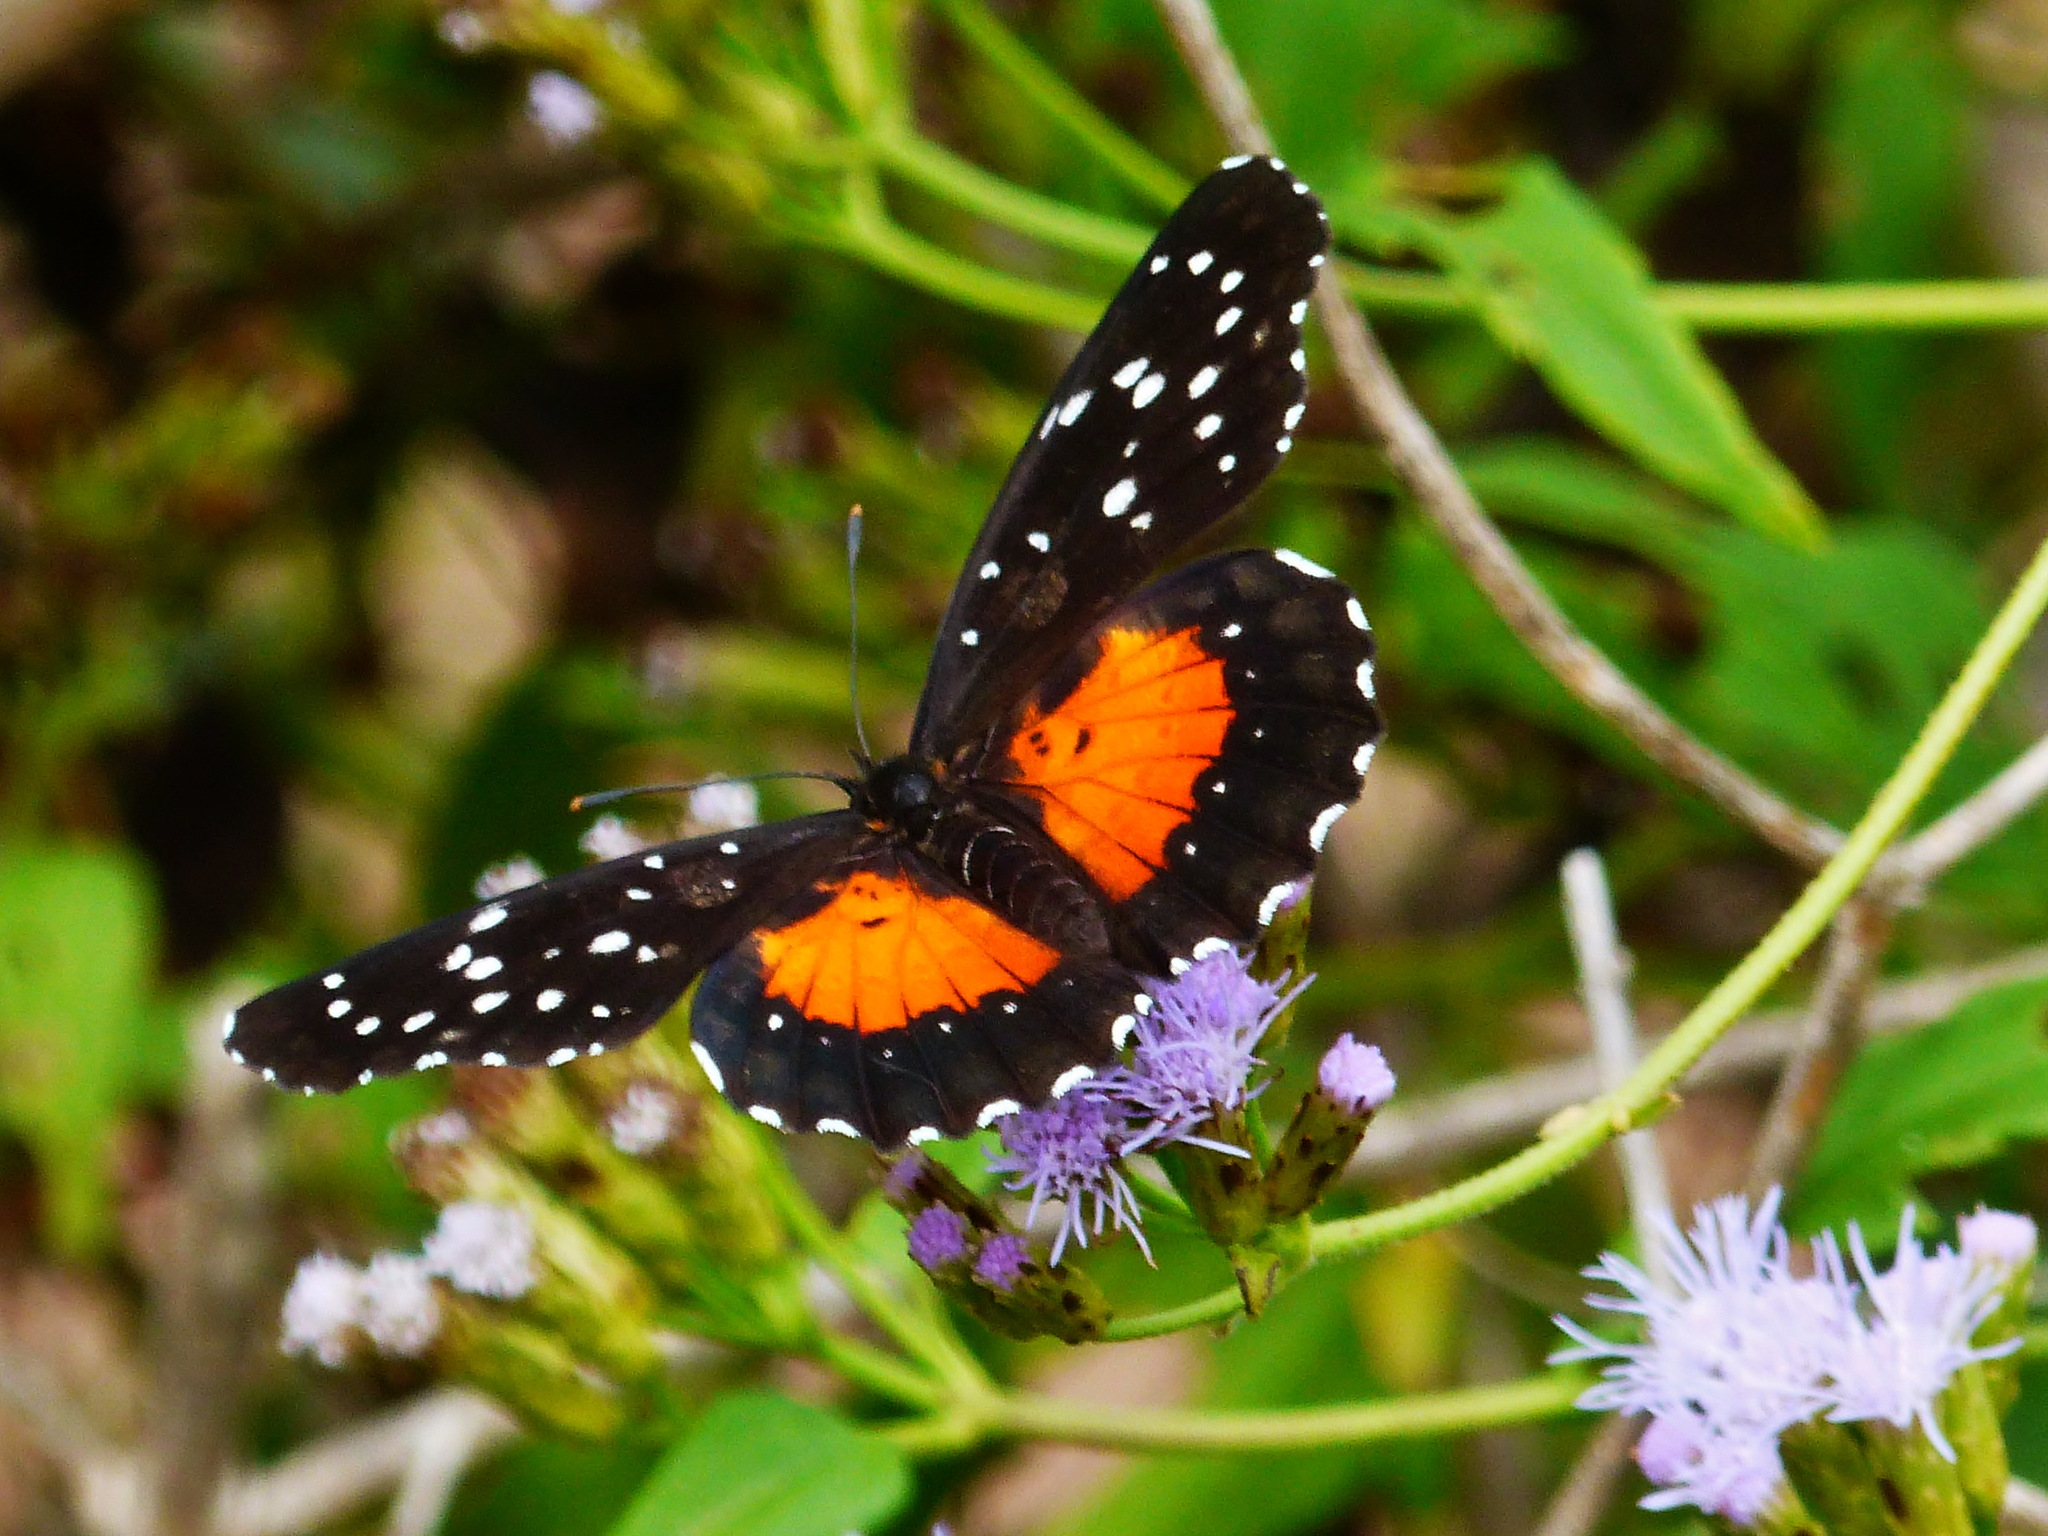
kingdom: Animalia
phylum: Arthropoda
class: Insecta
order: Lepidoptera
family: Nymphalidae
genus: Chlosyne
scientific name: Chlosyne janais
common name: Crimson patch
